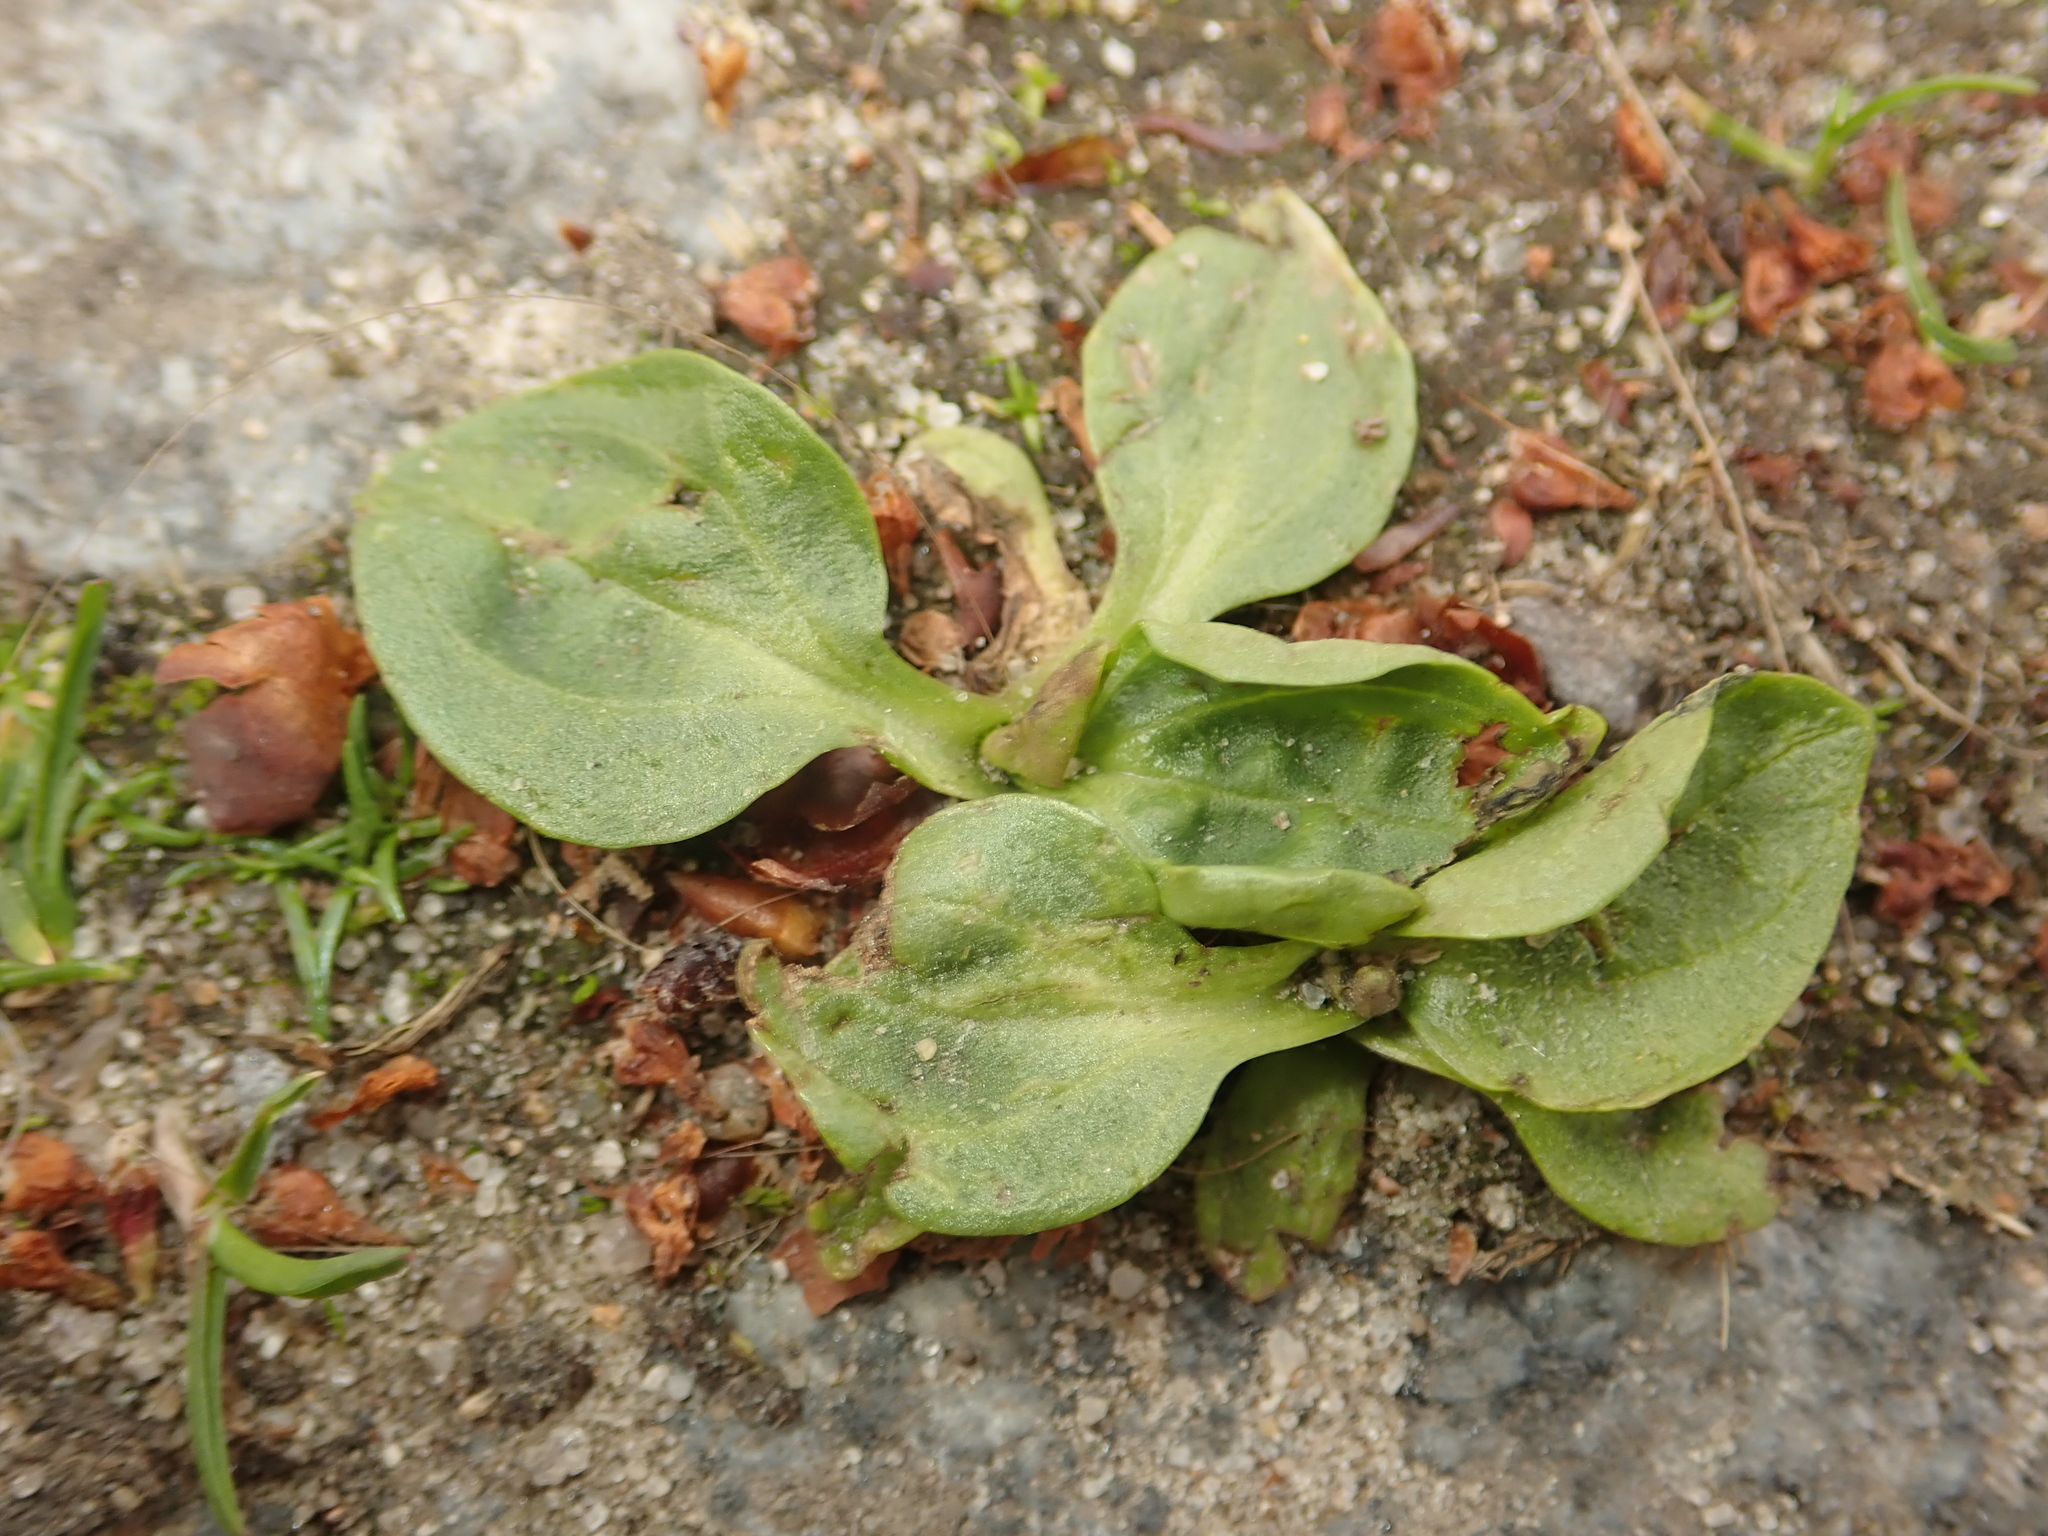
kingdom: Plantae
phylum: Tracheophyta
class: Magnoliopsida
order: Lamiales
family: Plantaginaceae
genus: Plantago
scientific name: Plantago major
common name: Common plantain
